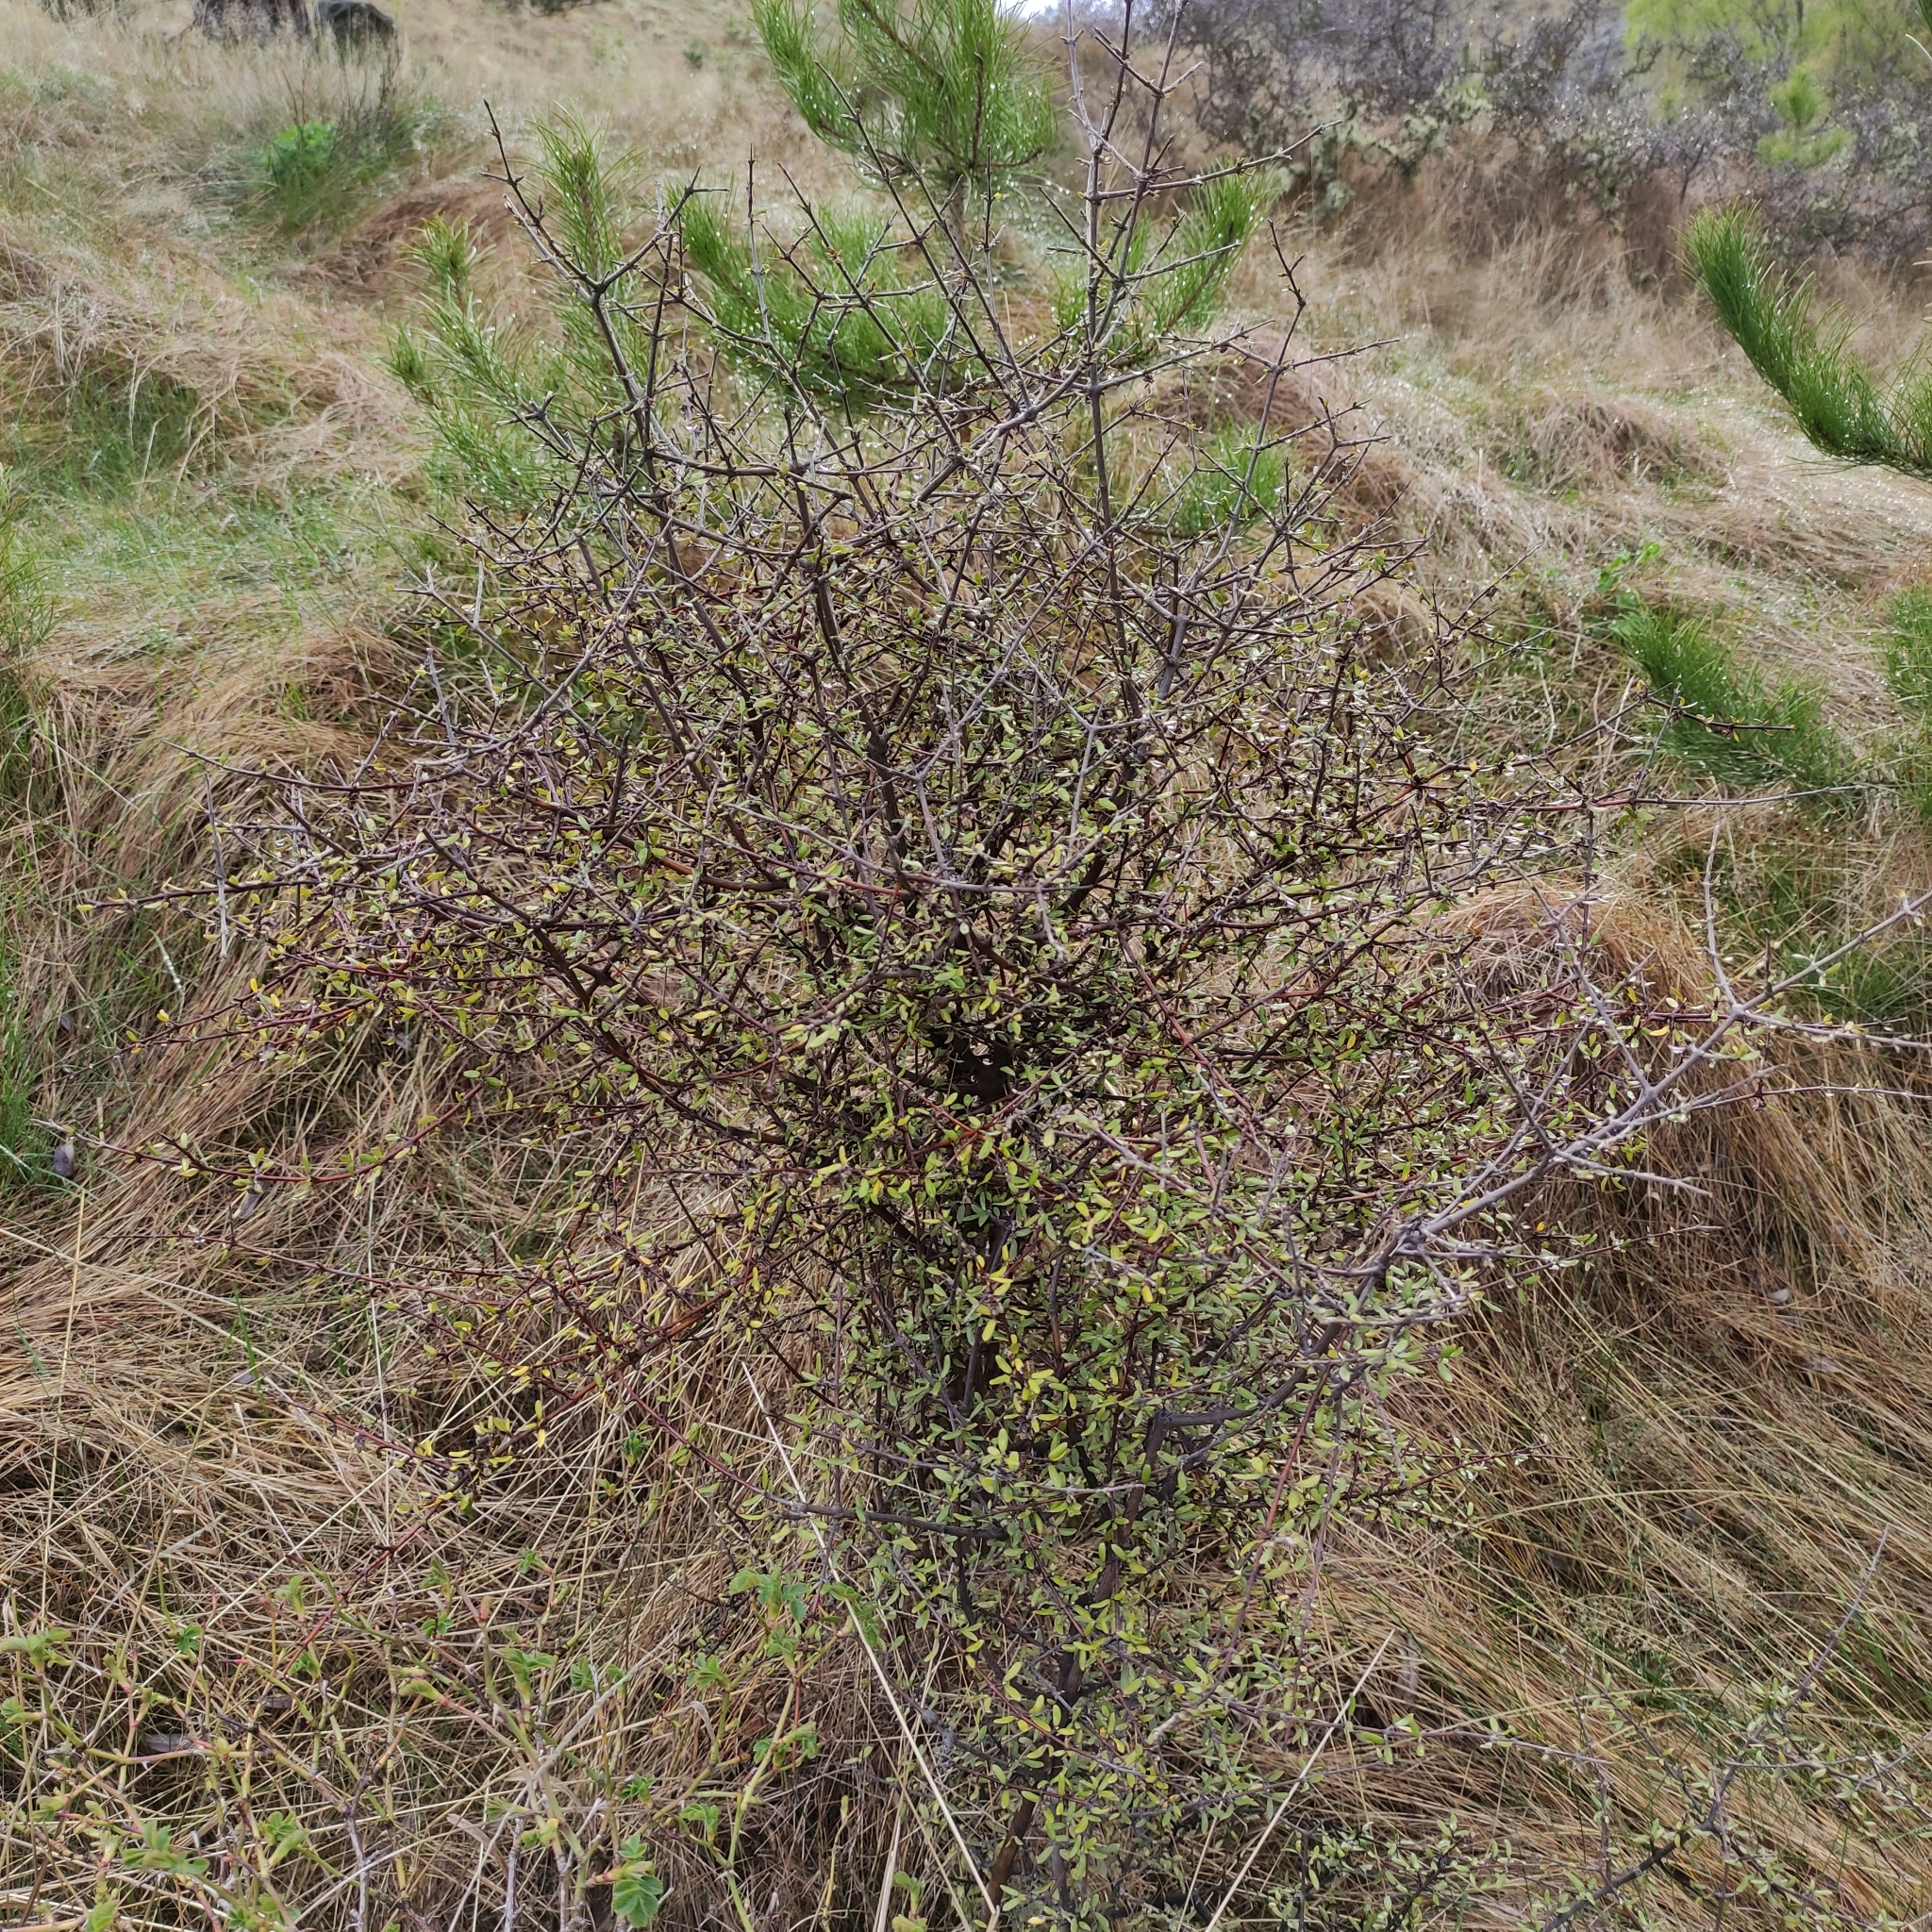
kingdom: Plantae
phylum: Tracheophyta
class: Magnoliopsida
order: Gentianales
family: Rubiaceae
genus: Coprosma
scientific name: Coprosma propinqua
